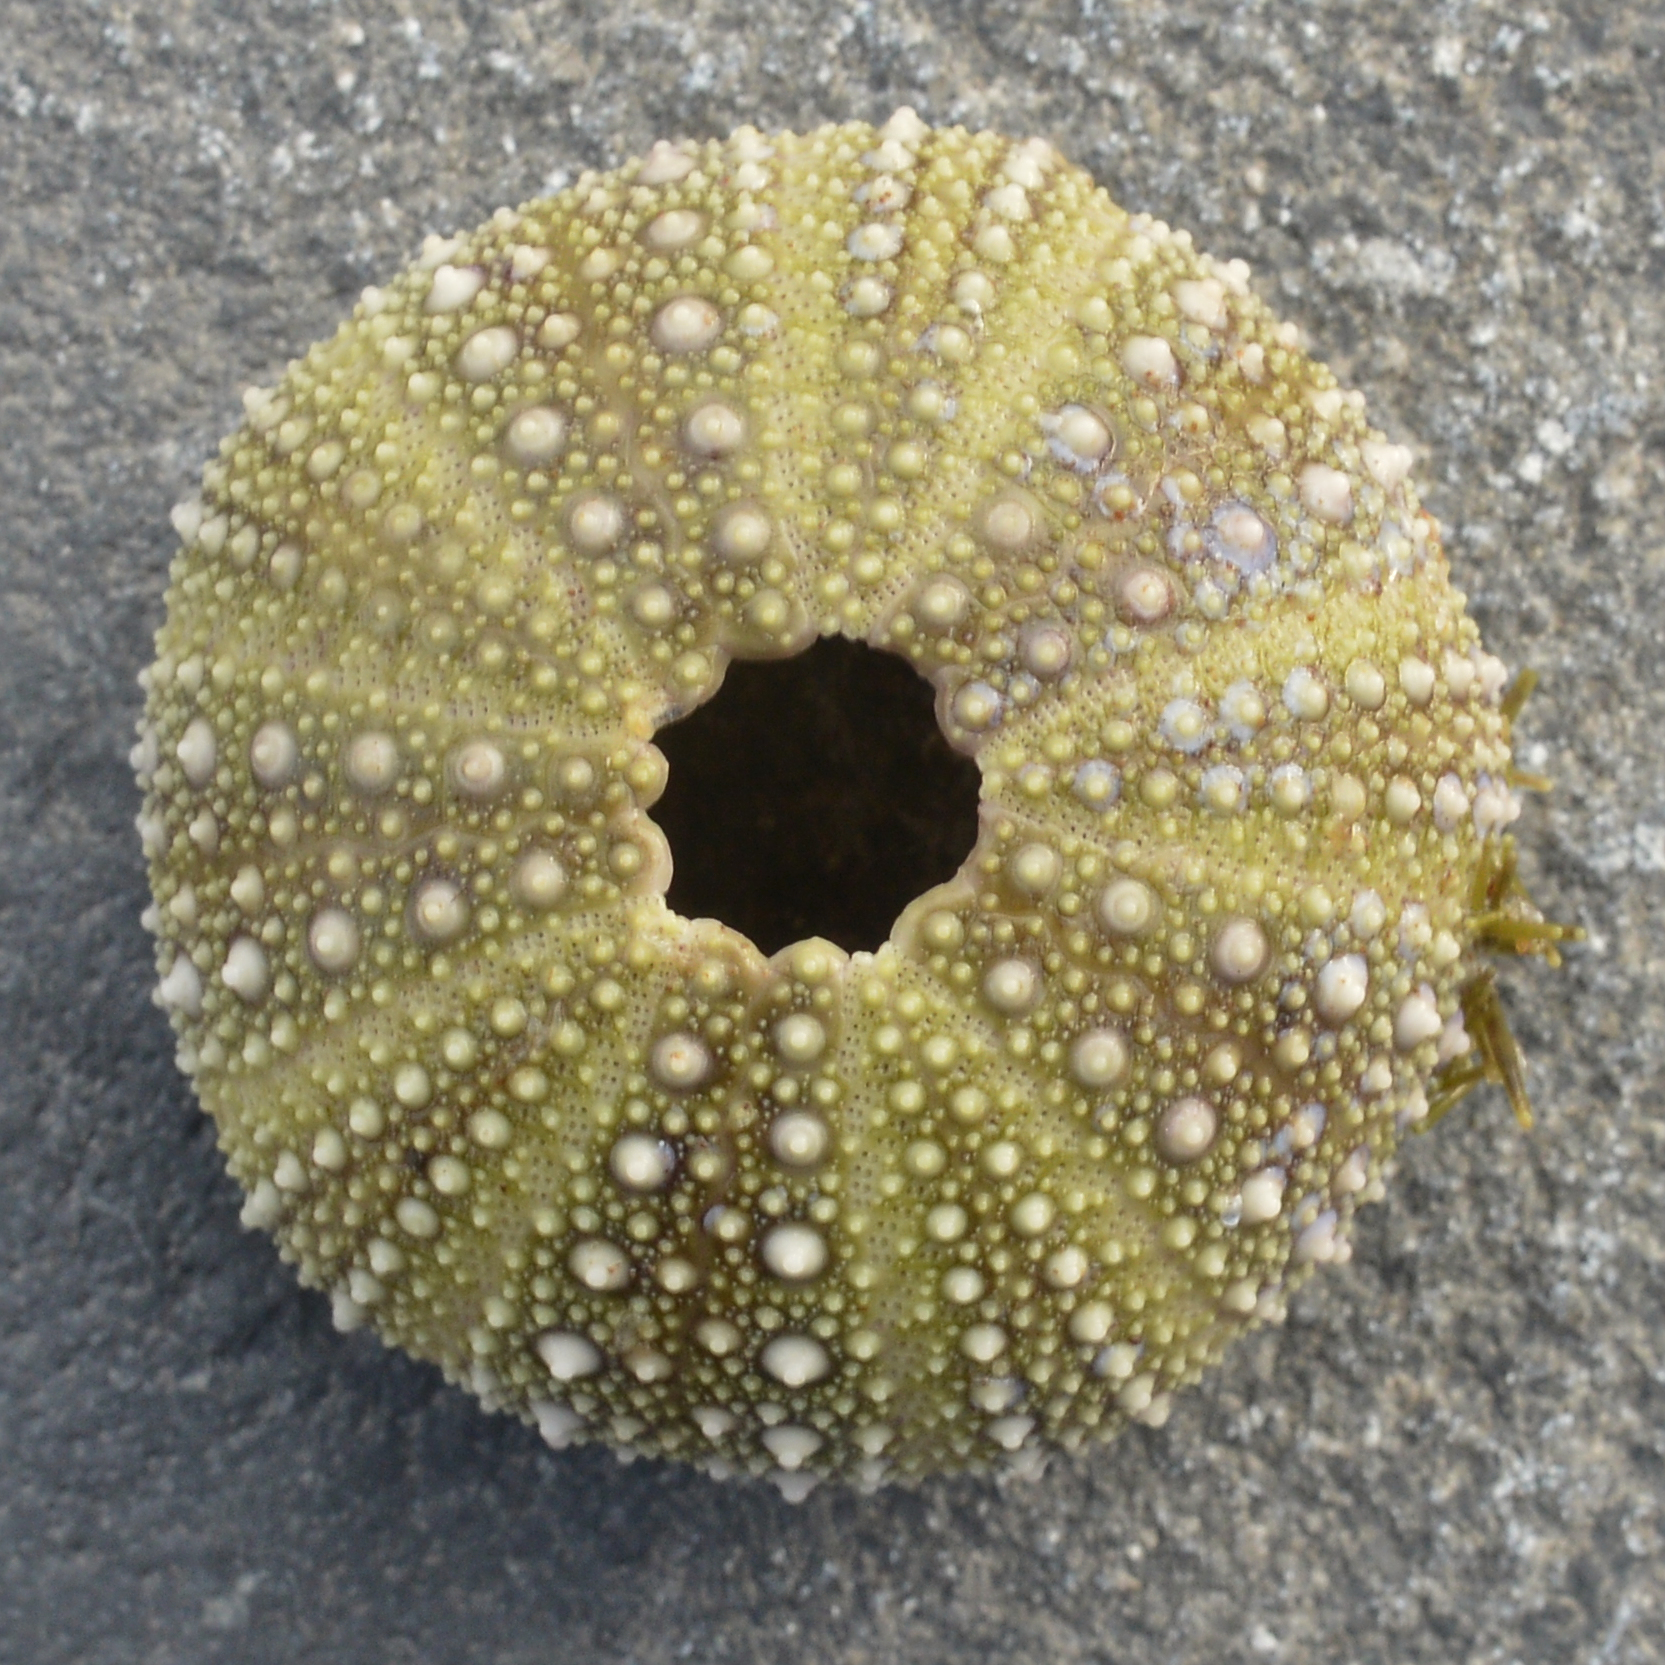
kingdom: Animalia
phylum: Echinodermata
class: Echinoidea
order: Camarodonta
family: Strongylocentrotidae
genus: Strongylocentrotus
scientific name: Strongylocentrotus droebachiensis
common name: Northern sea urchin
